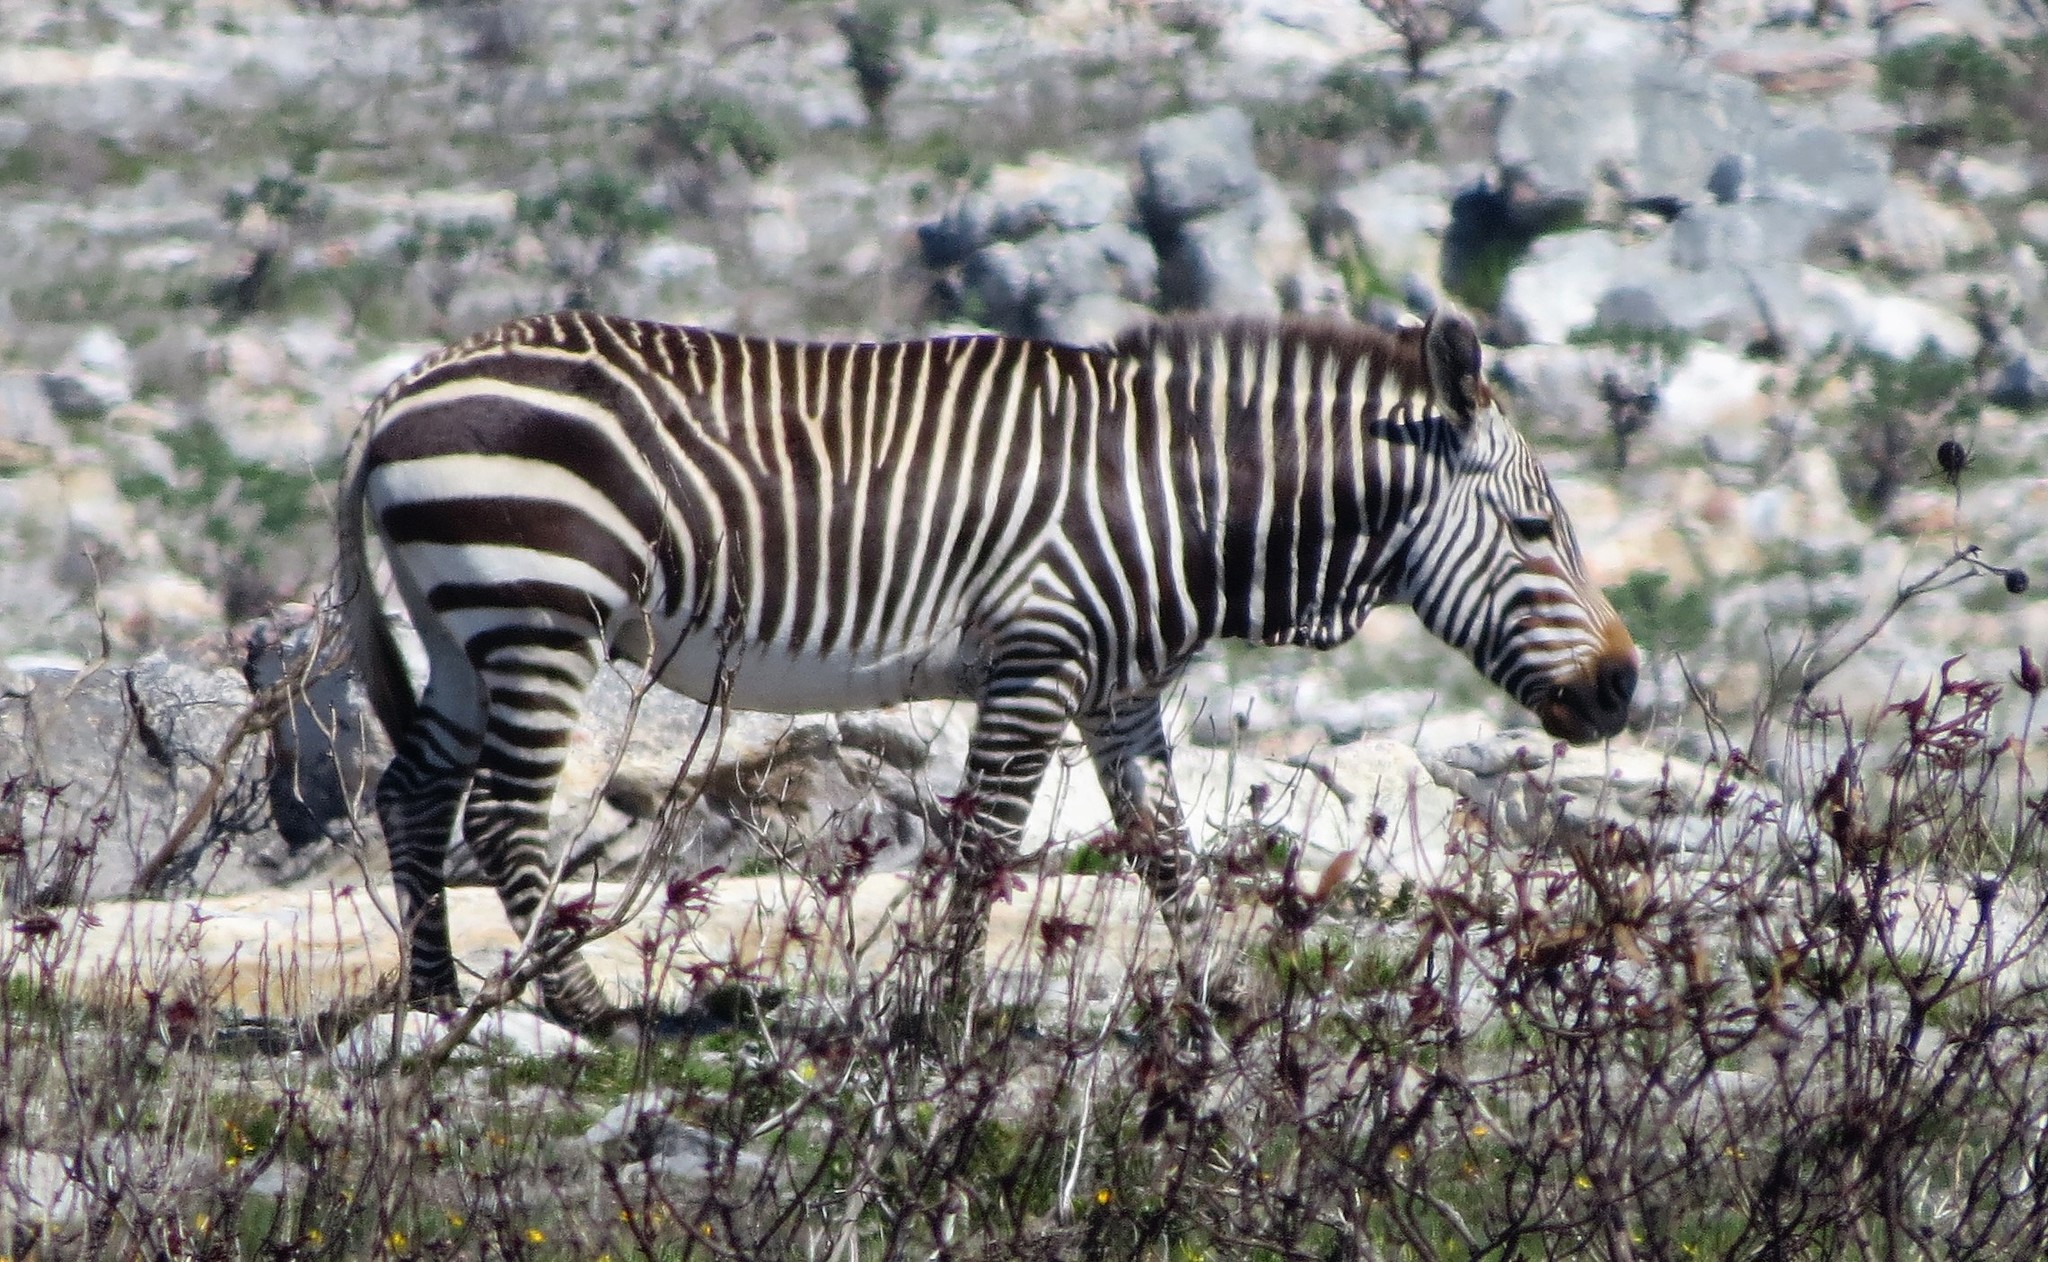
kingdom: Animalia
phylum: Chordata
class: Mammalia
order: Perissodactyla
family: Equidae
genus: Equus
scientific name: Equus zebra
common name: Mountain zebra
